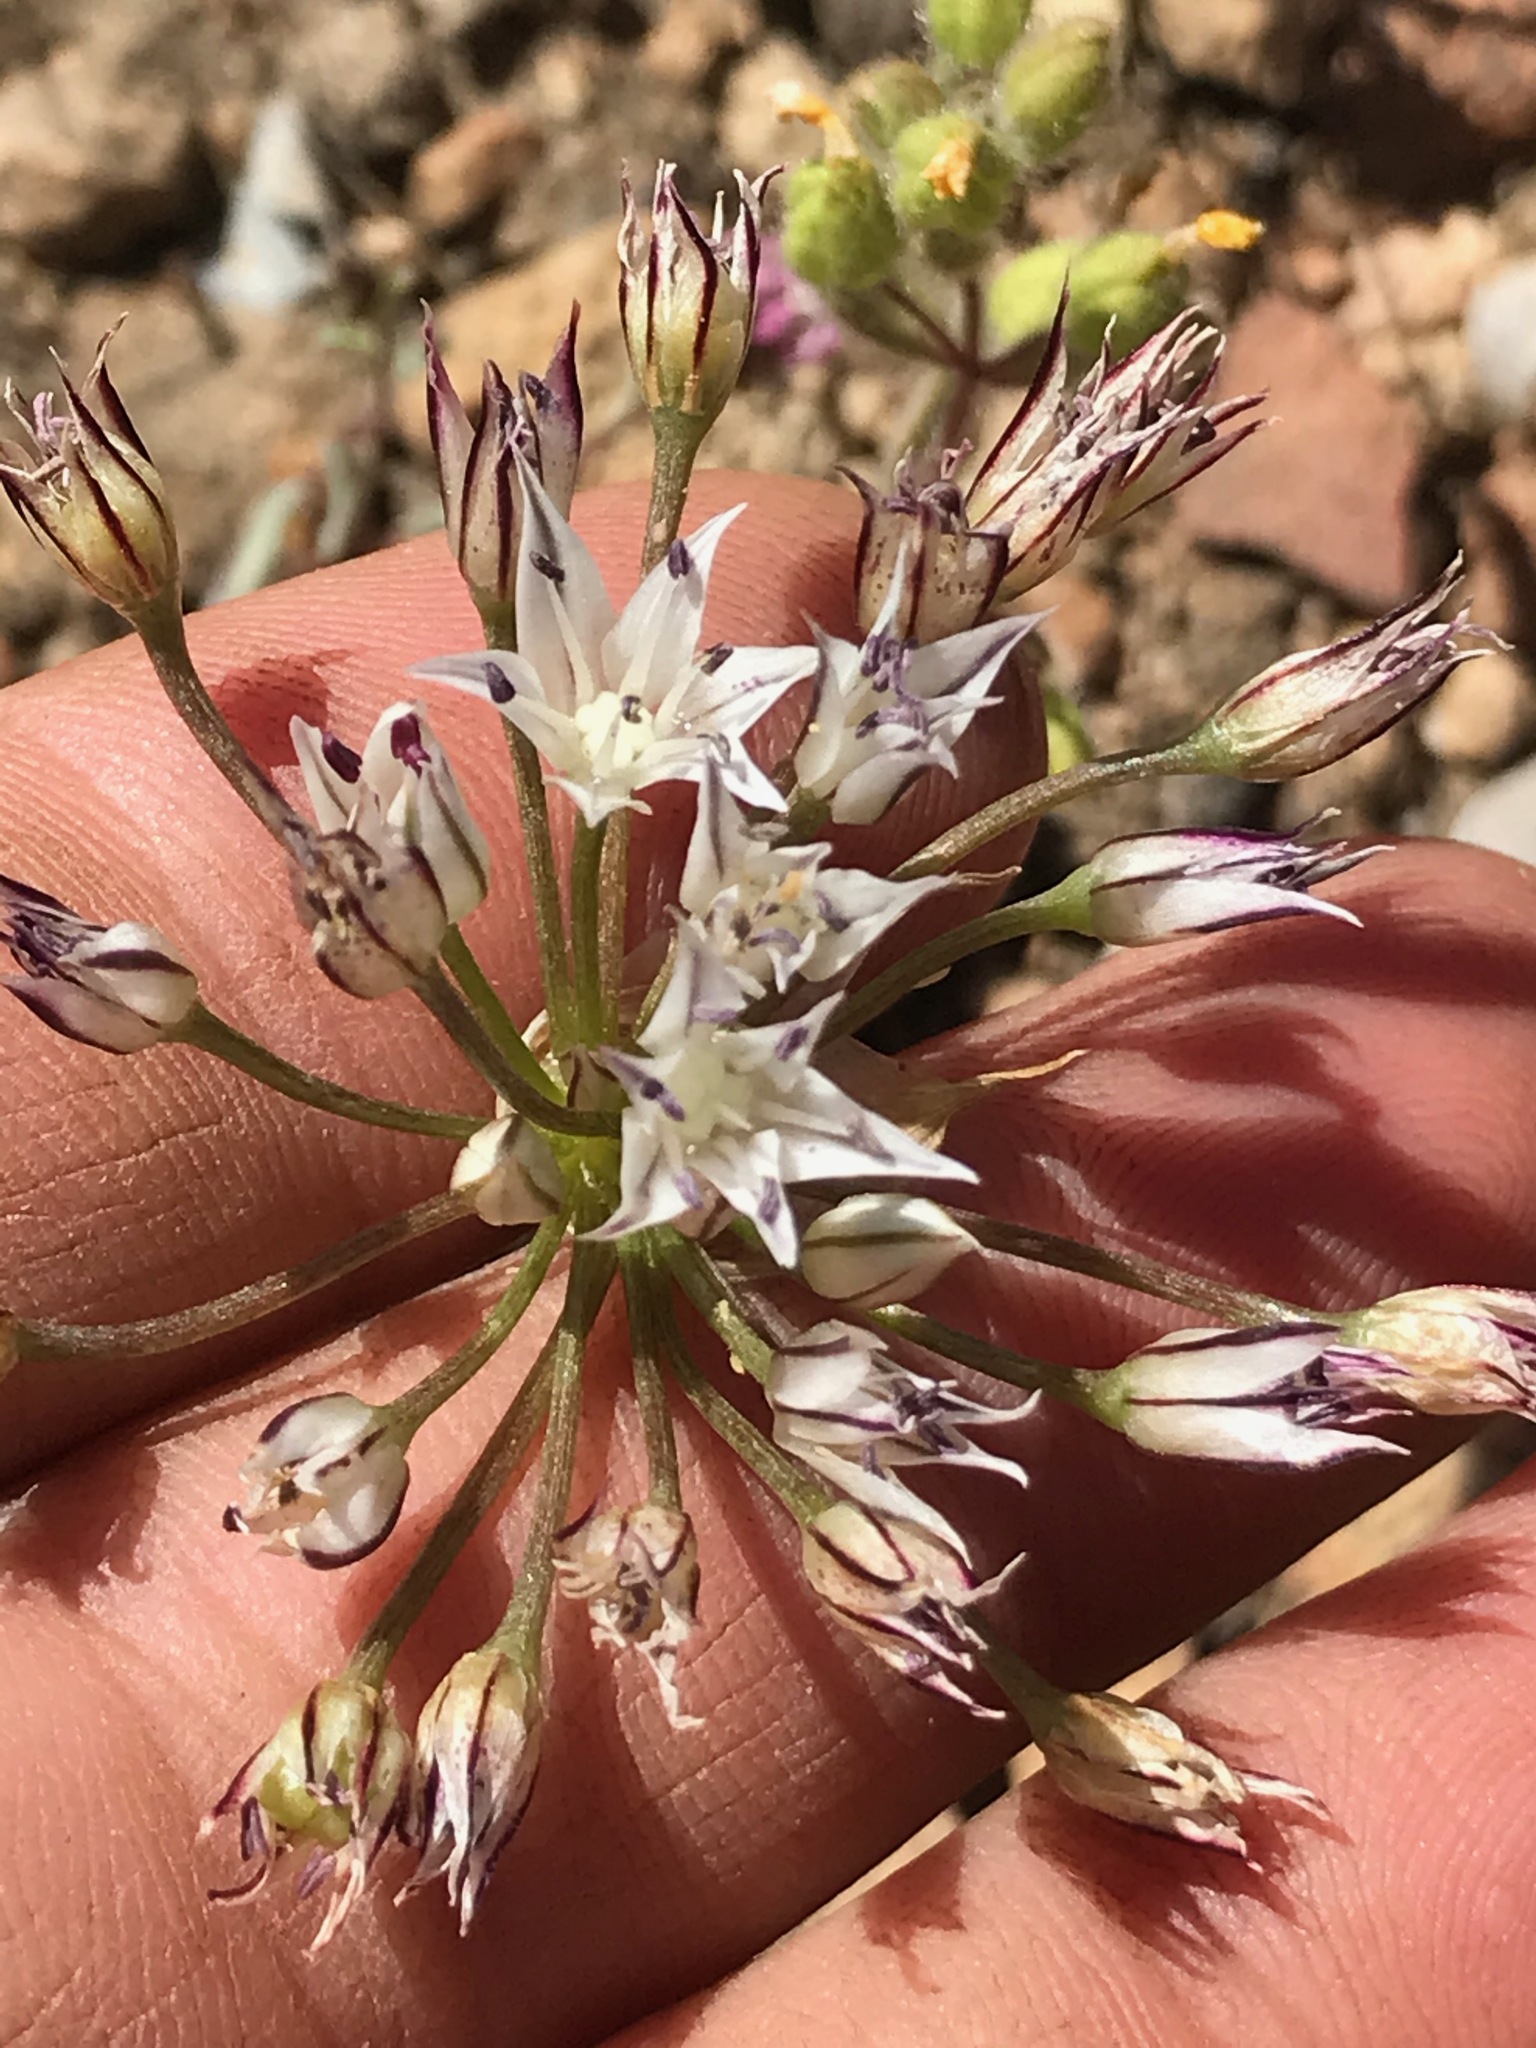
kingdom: Plantae
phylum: Tracheophyta
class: Liliopsida
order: Asparagales
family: Amaryllidaceae
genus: Allium
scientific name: Allium lacunosum
